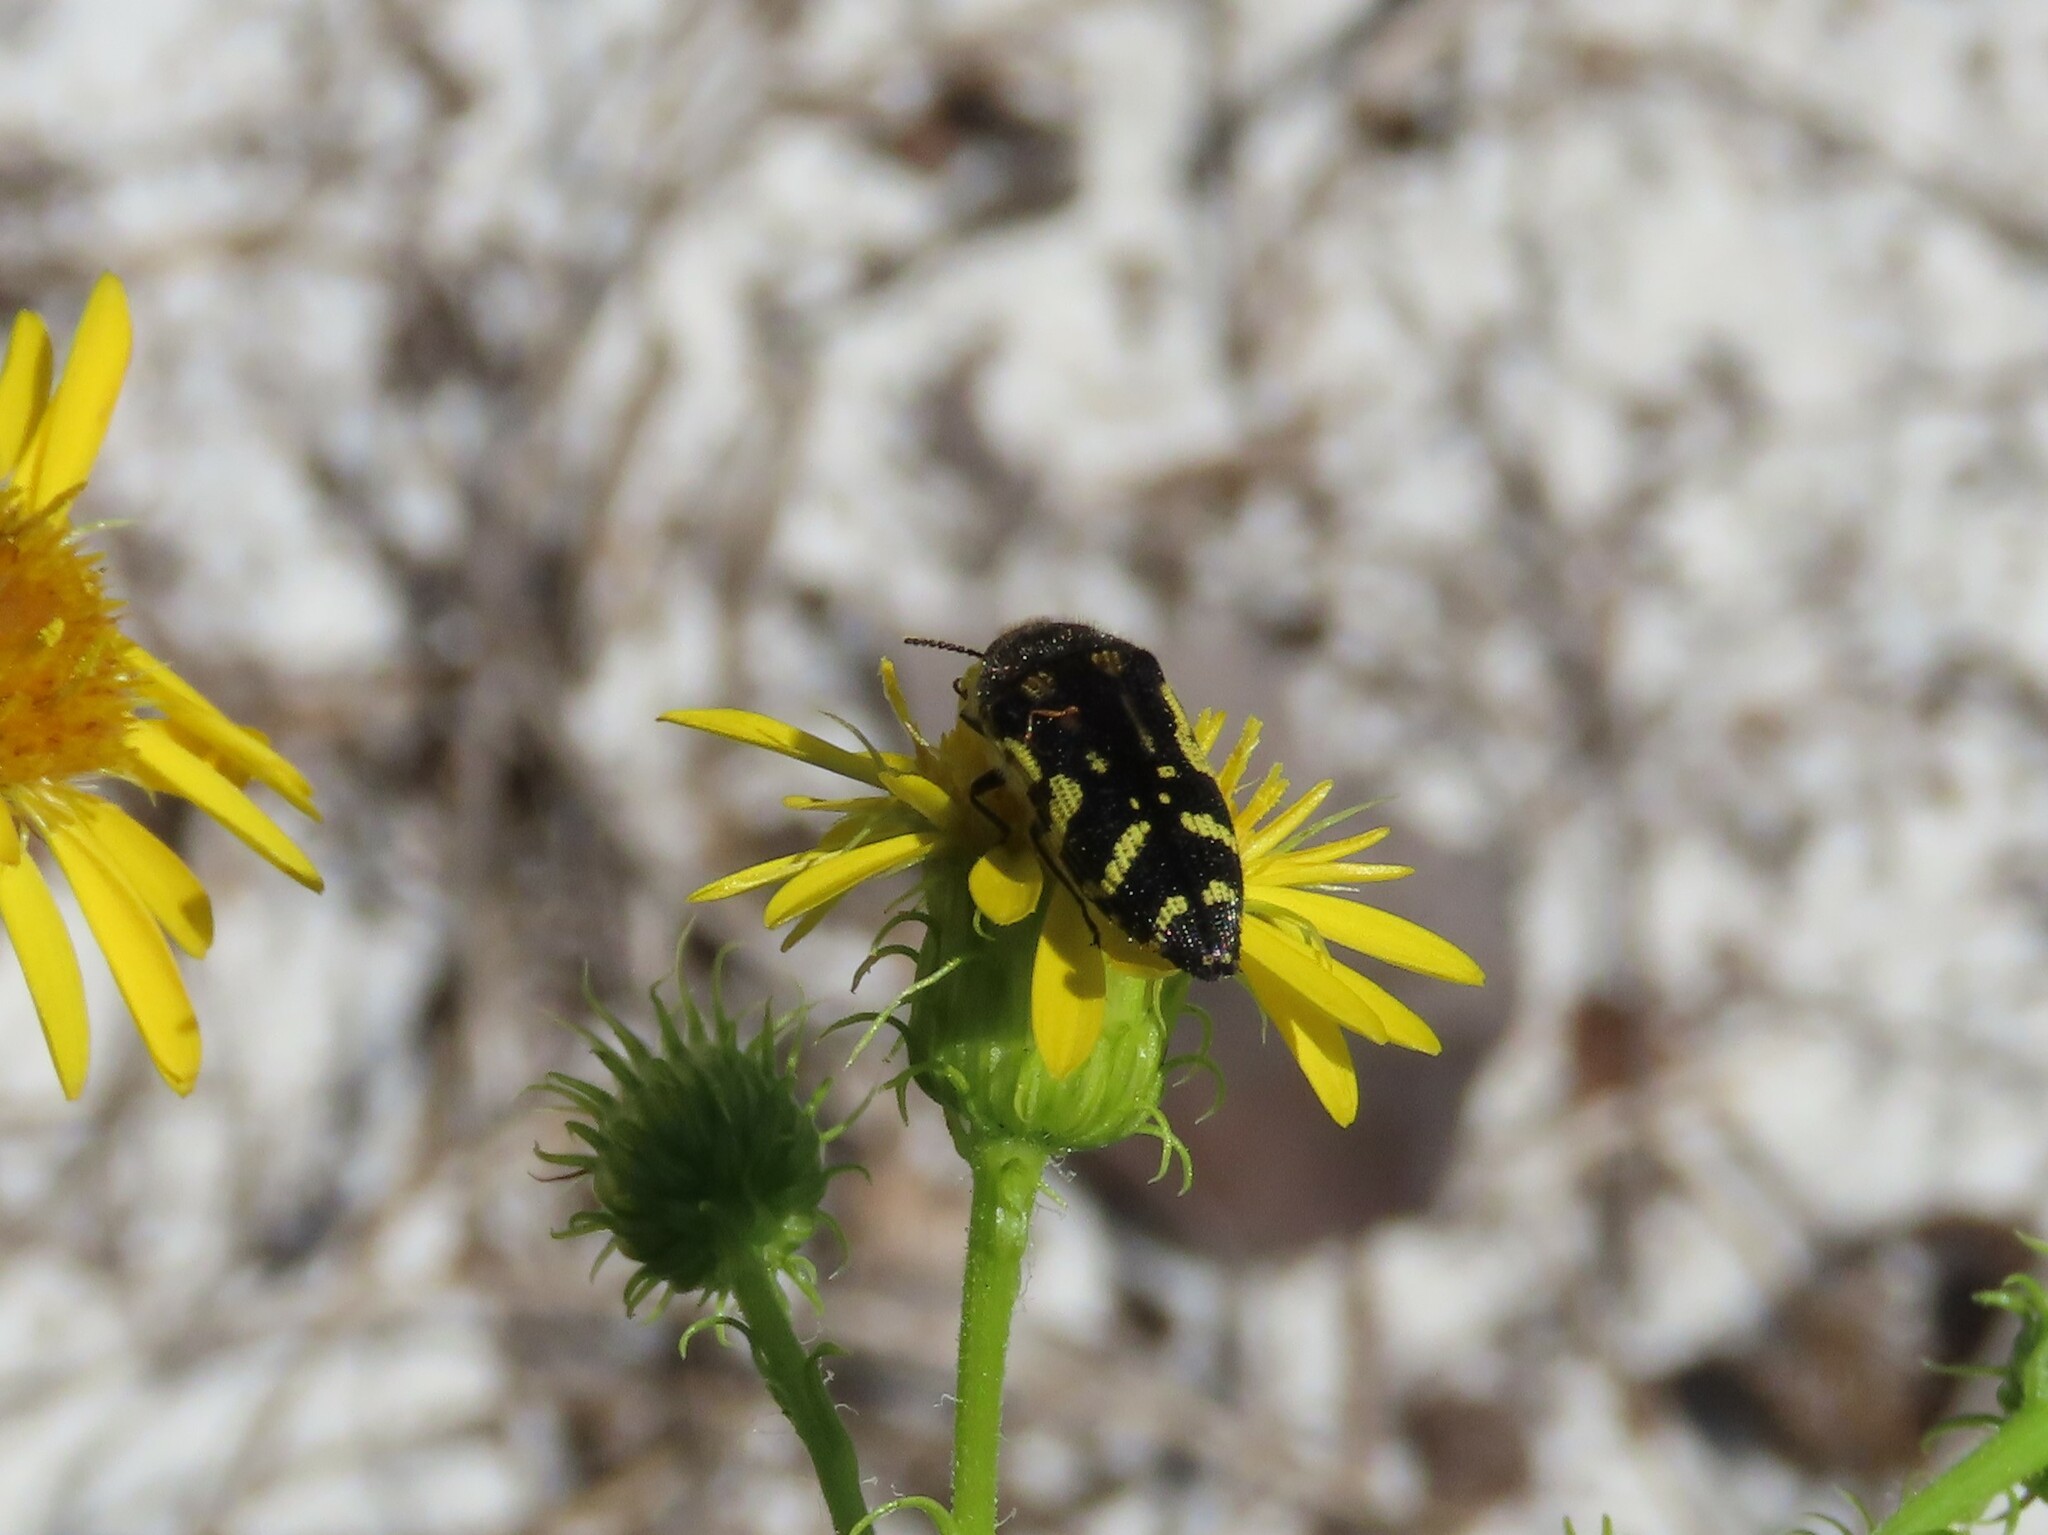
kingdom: Animalia
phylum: Arthropoda
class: Insecta
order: Coleoptera
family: Buprestidae
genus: Acmaeodera
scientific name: Acmaeodera pulchella
